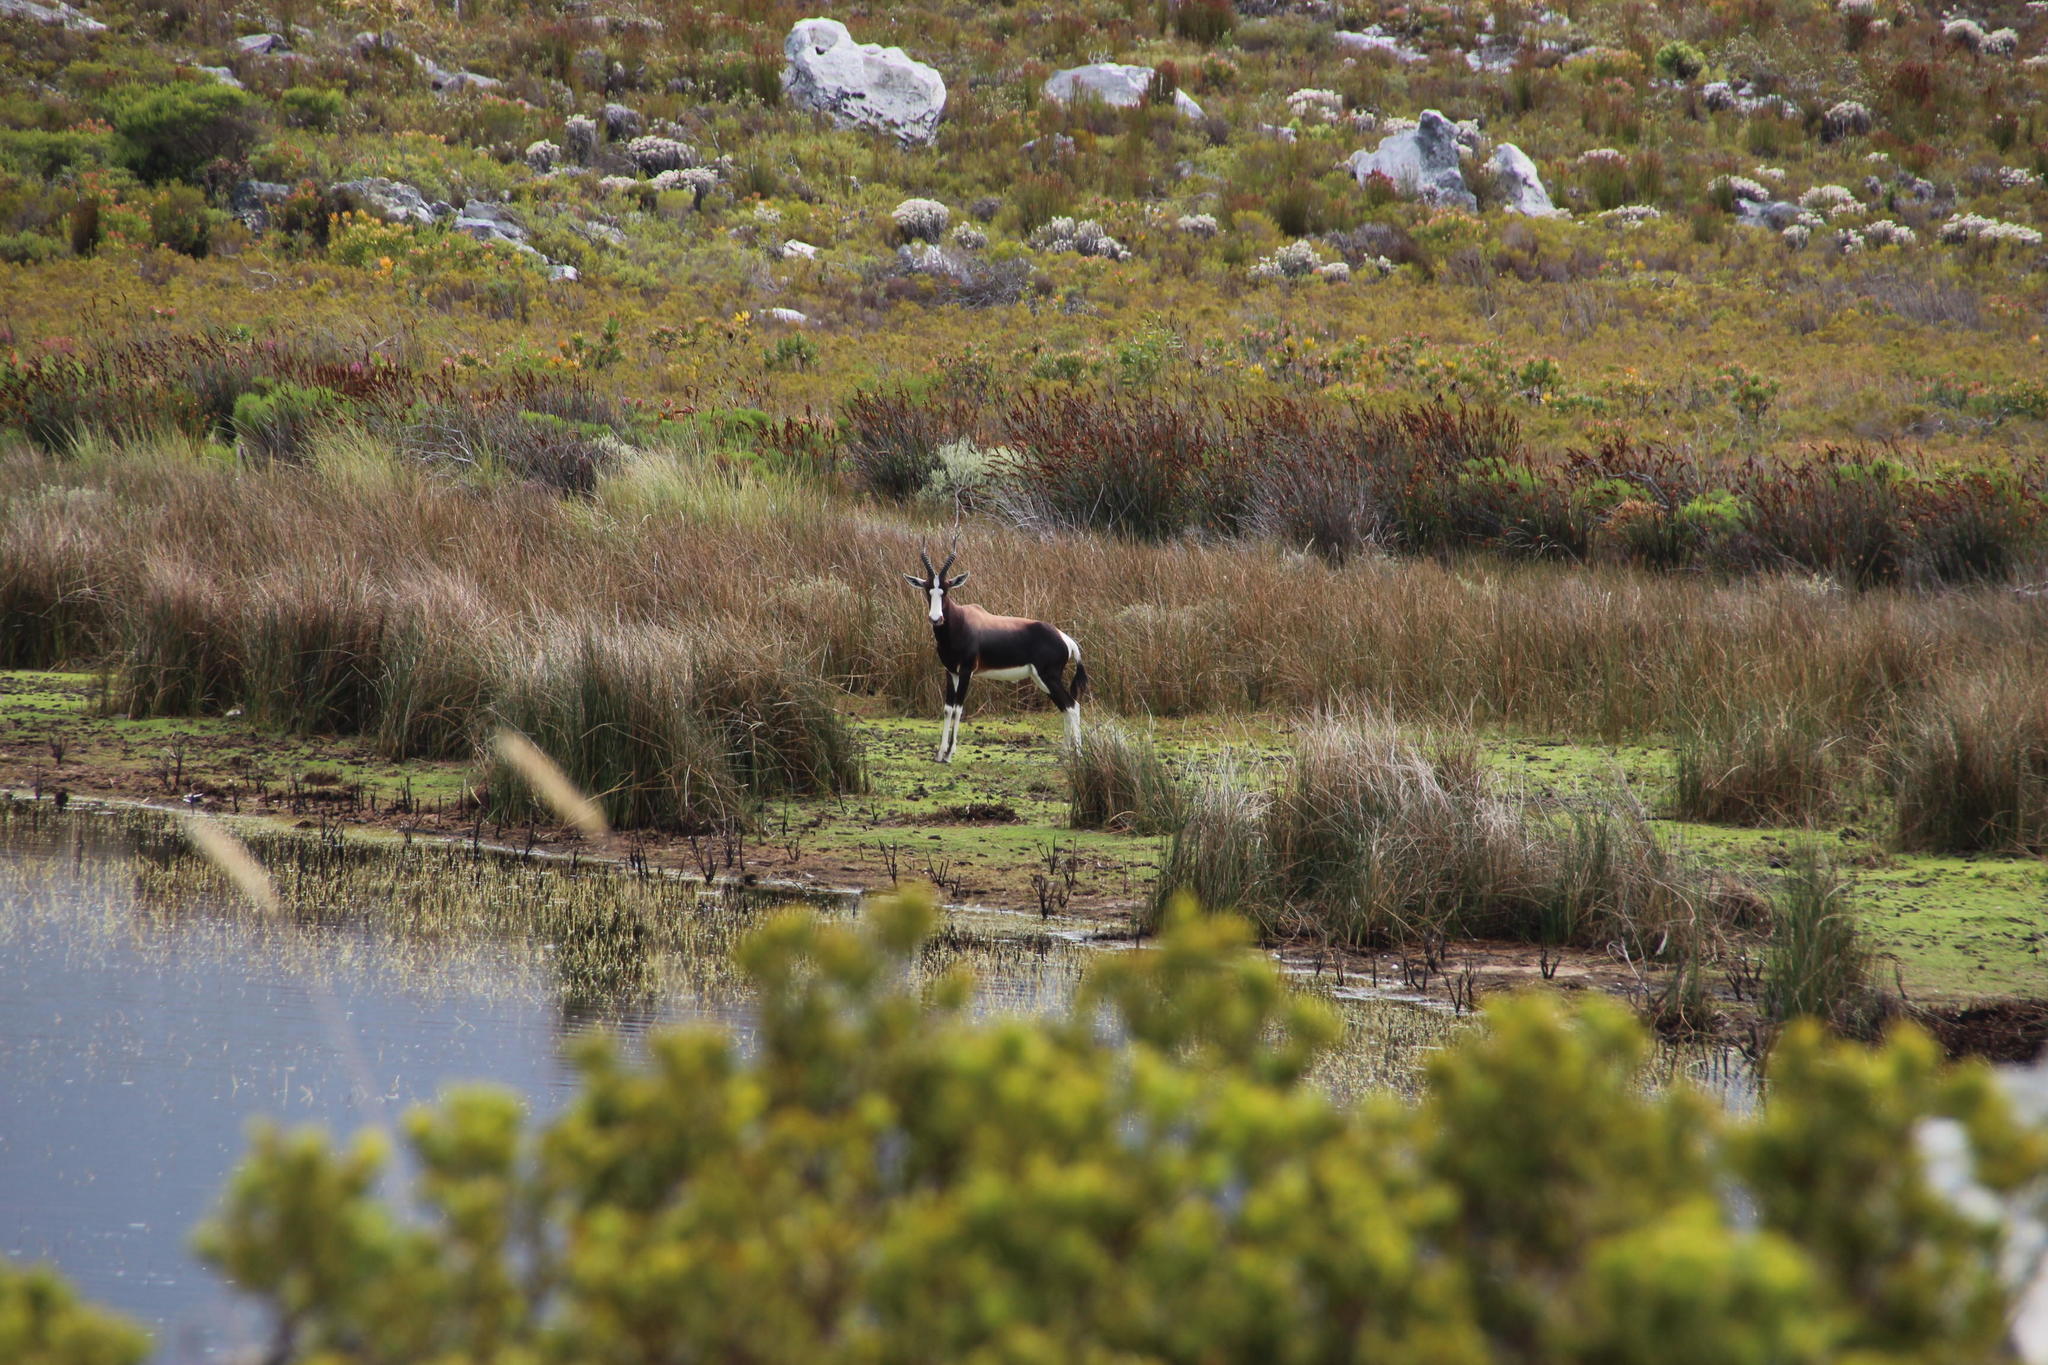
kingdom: Animalia
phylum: Chordata
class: Mammalia
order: Artiodactyla
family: Bovidae
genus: Damaliscus
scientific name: Damaliscus pygargus
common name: Bontebok
